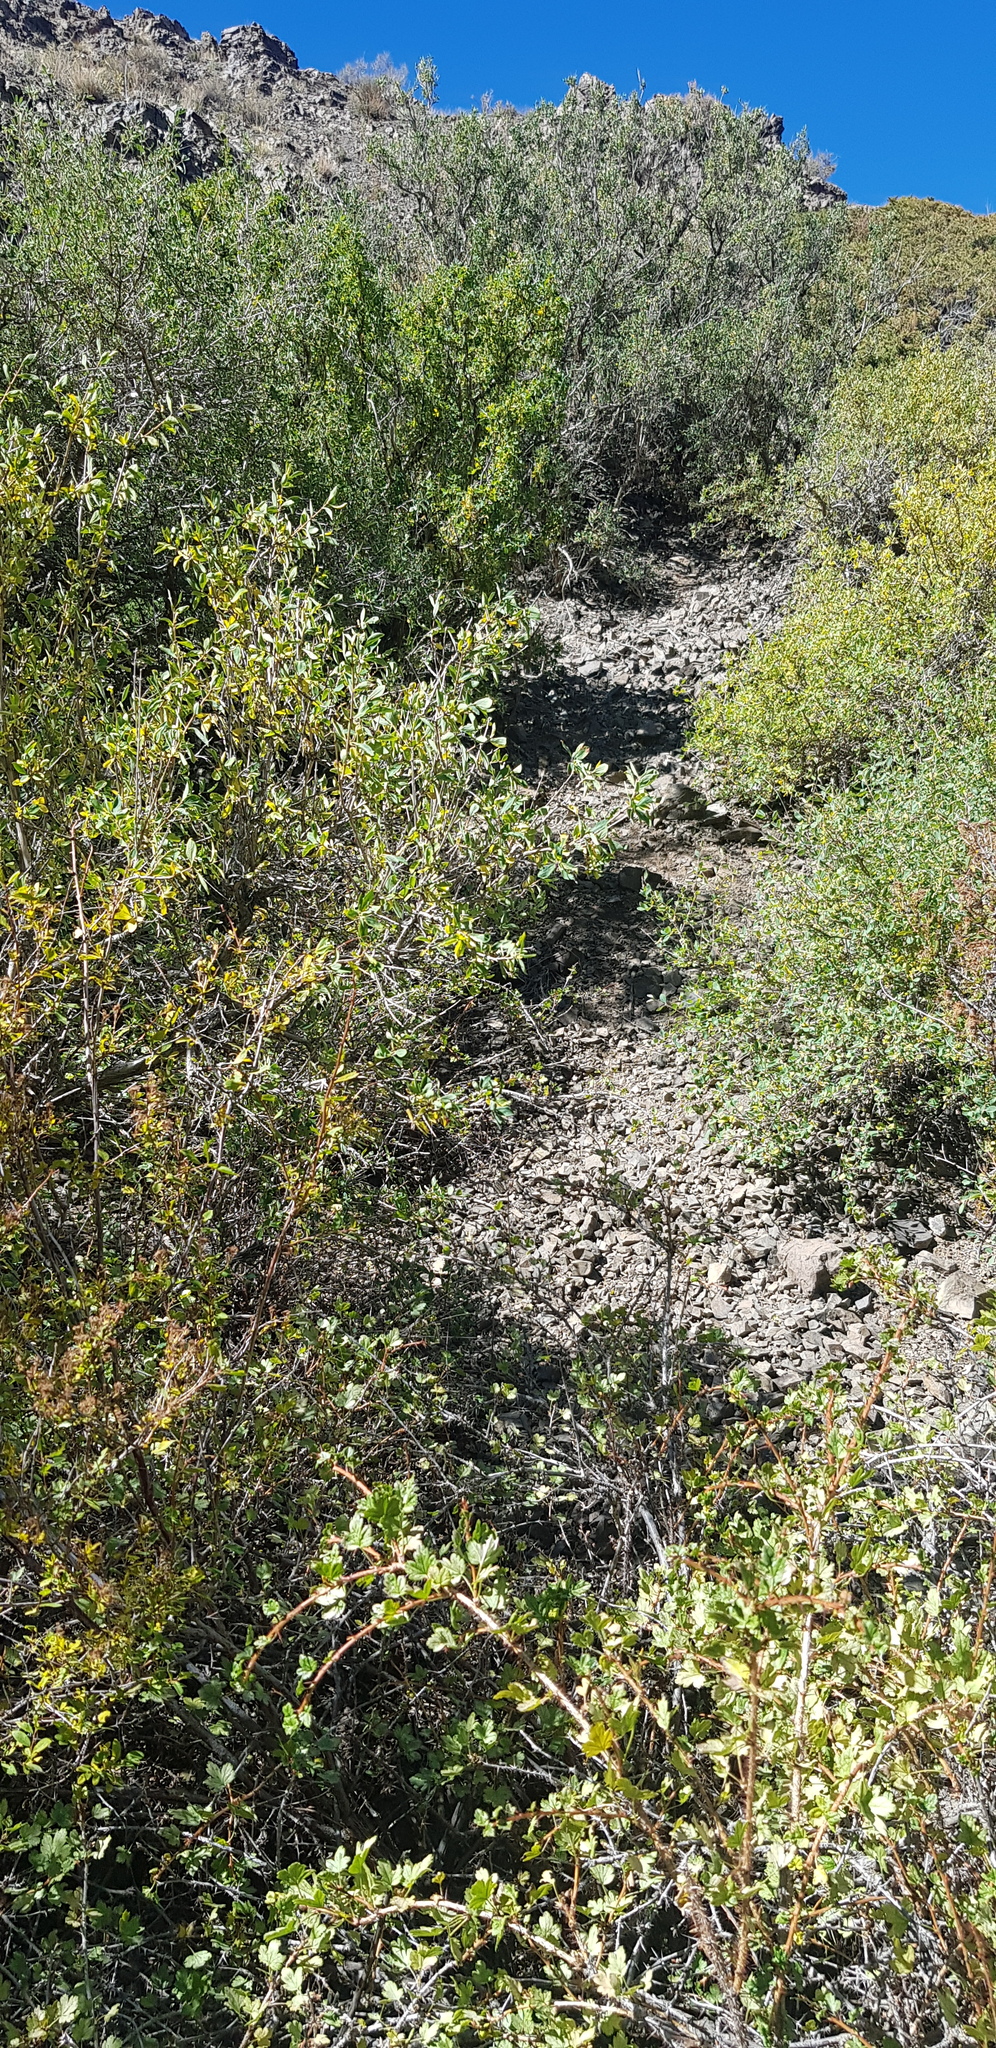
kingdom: Plantae
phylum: Tracheophyta
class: Magnoliopsida
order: Dipsacales
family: Caprifoliaceae
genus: Lonicera
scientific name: Lonicera microphylla
